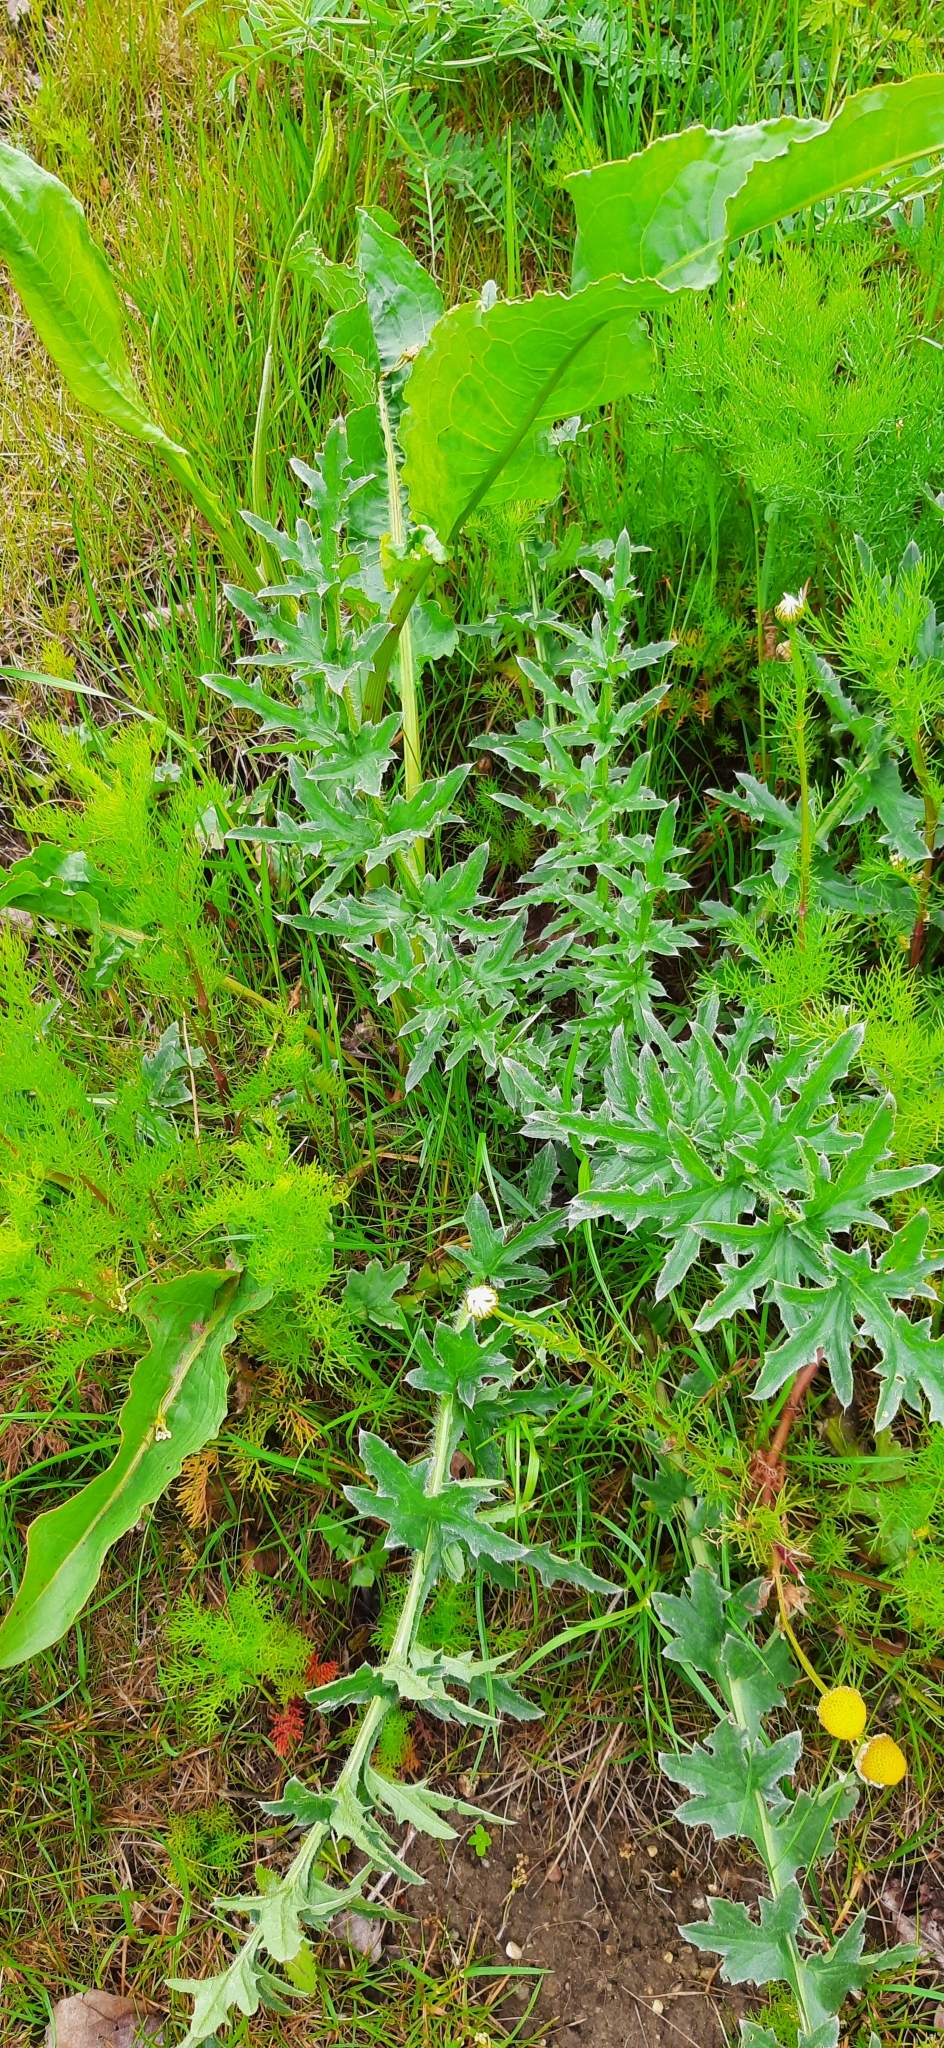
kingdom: Plantae
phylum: Tracheophyta
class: Magnoliopsida
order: Asterales
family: Asteraceae
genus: Carduus
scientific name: Carduus acanthoides
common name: Plumeless thistle
